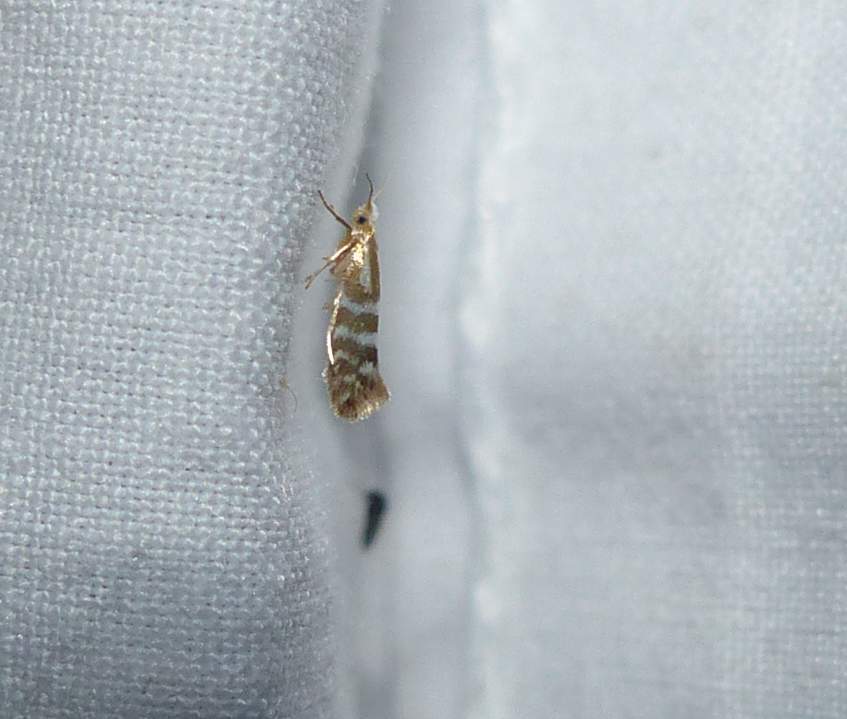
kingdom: Animalia
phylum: Arthropoda
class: Insecta
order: Lepidoptera
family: Argyresthiidae
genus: Argyresthia
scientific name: Argyresthia aureoargentella
